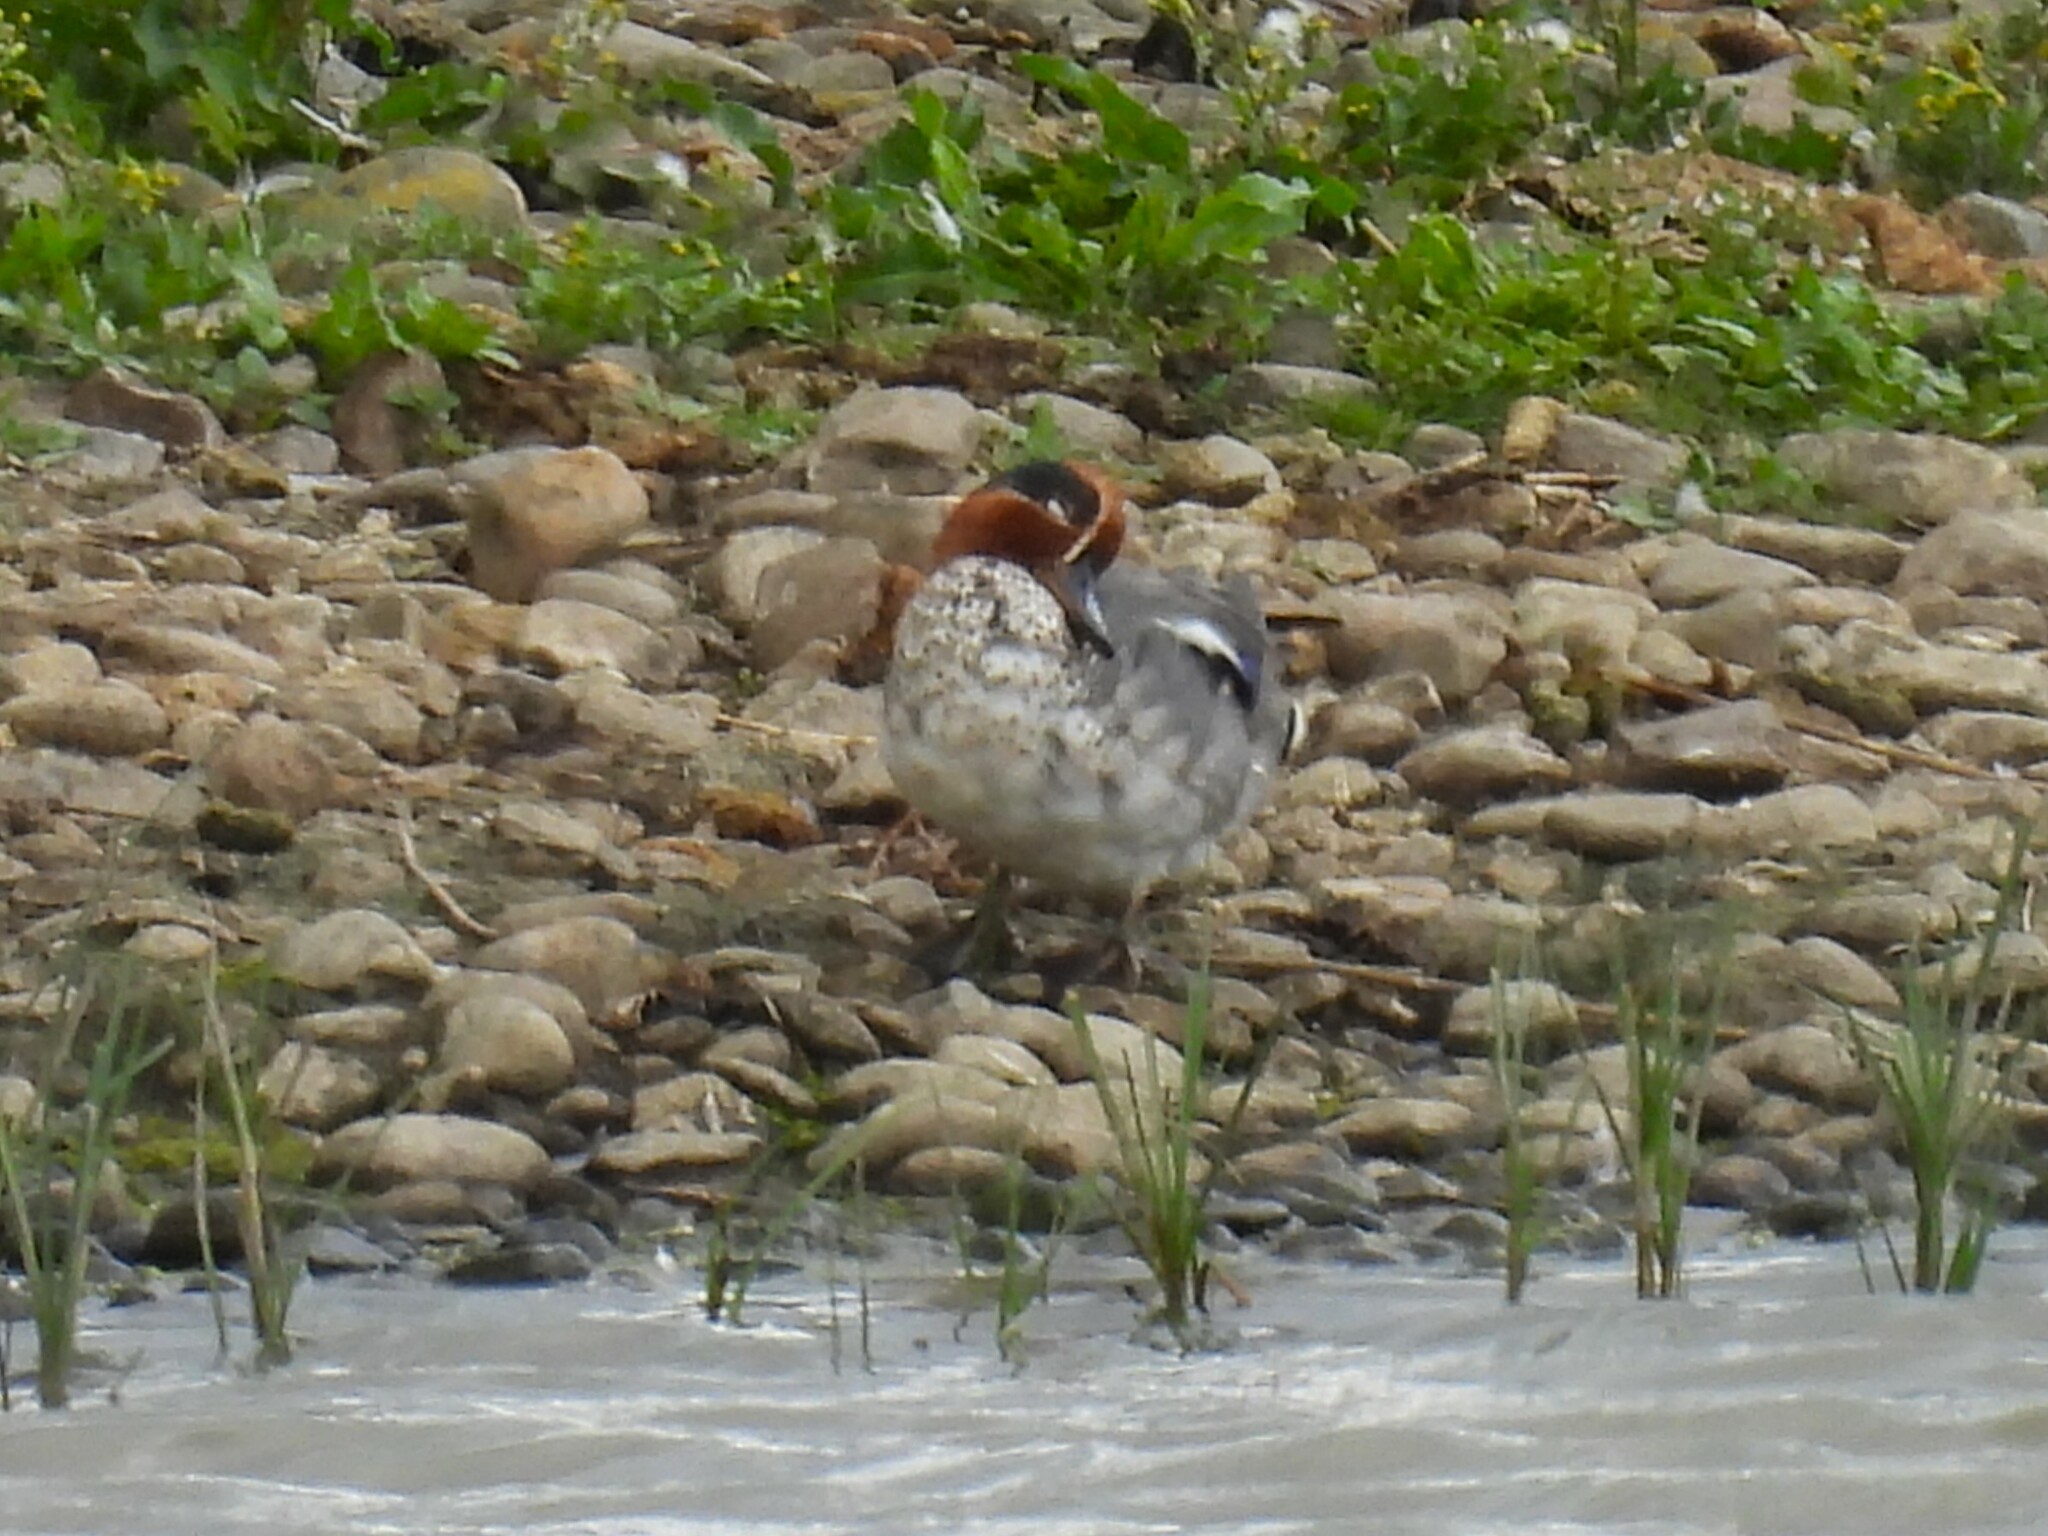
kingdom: Animalia
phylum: Chordata
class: Aves
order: Anseriformes
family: Anatidae
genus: Anas
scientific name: Anas crecca
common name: Eurasian teal
